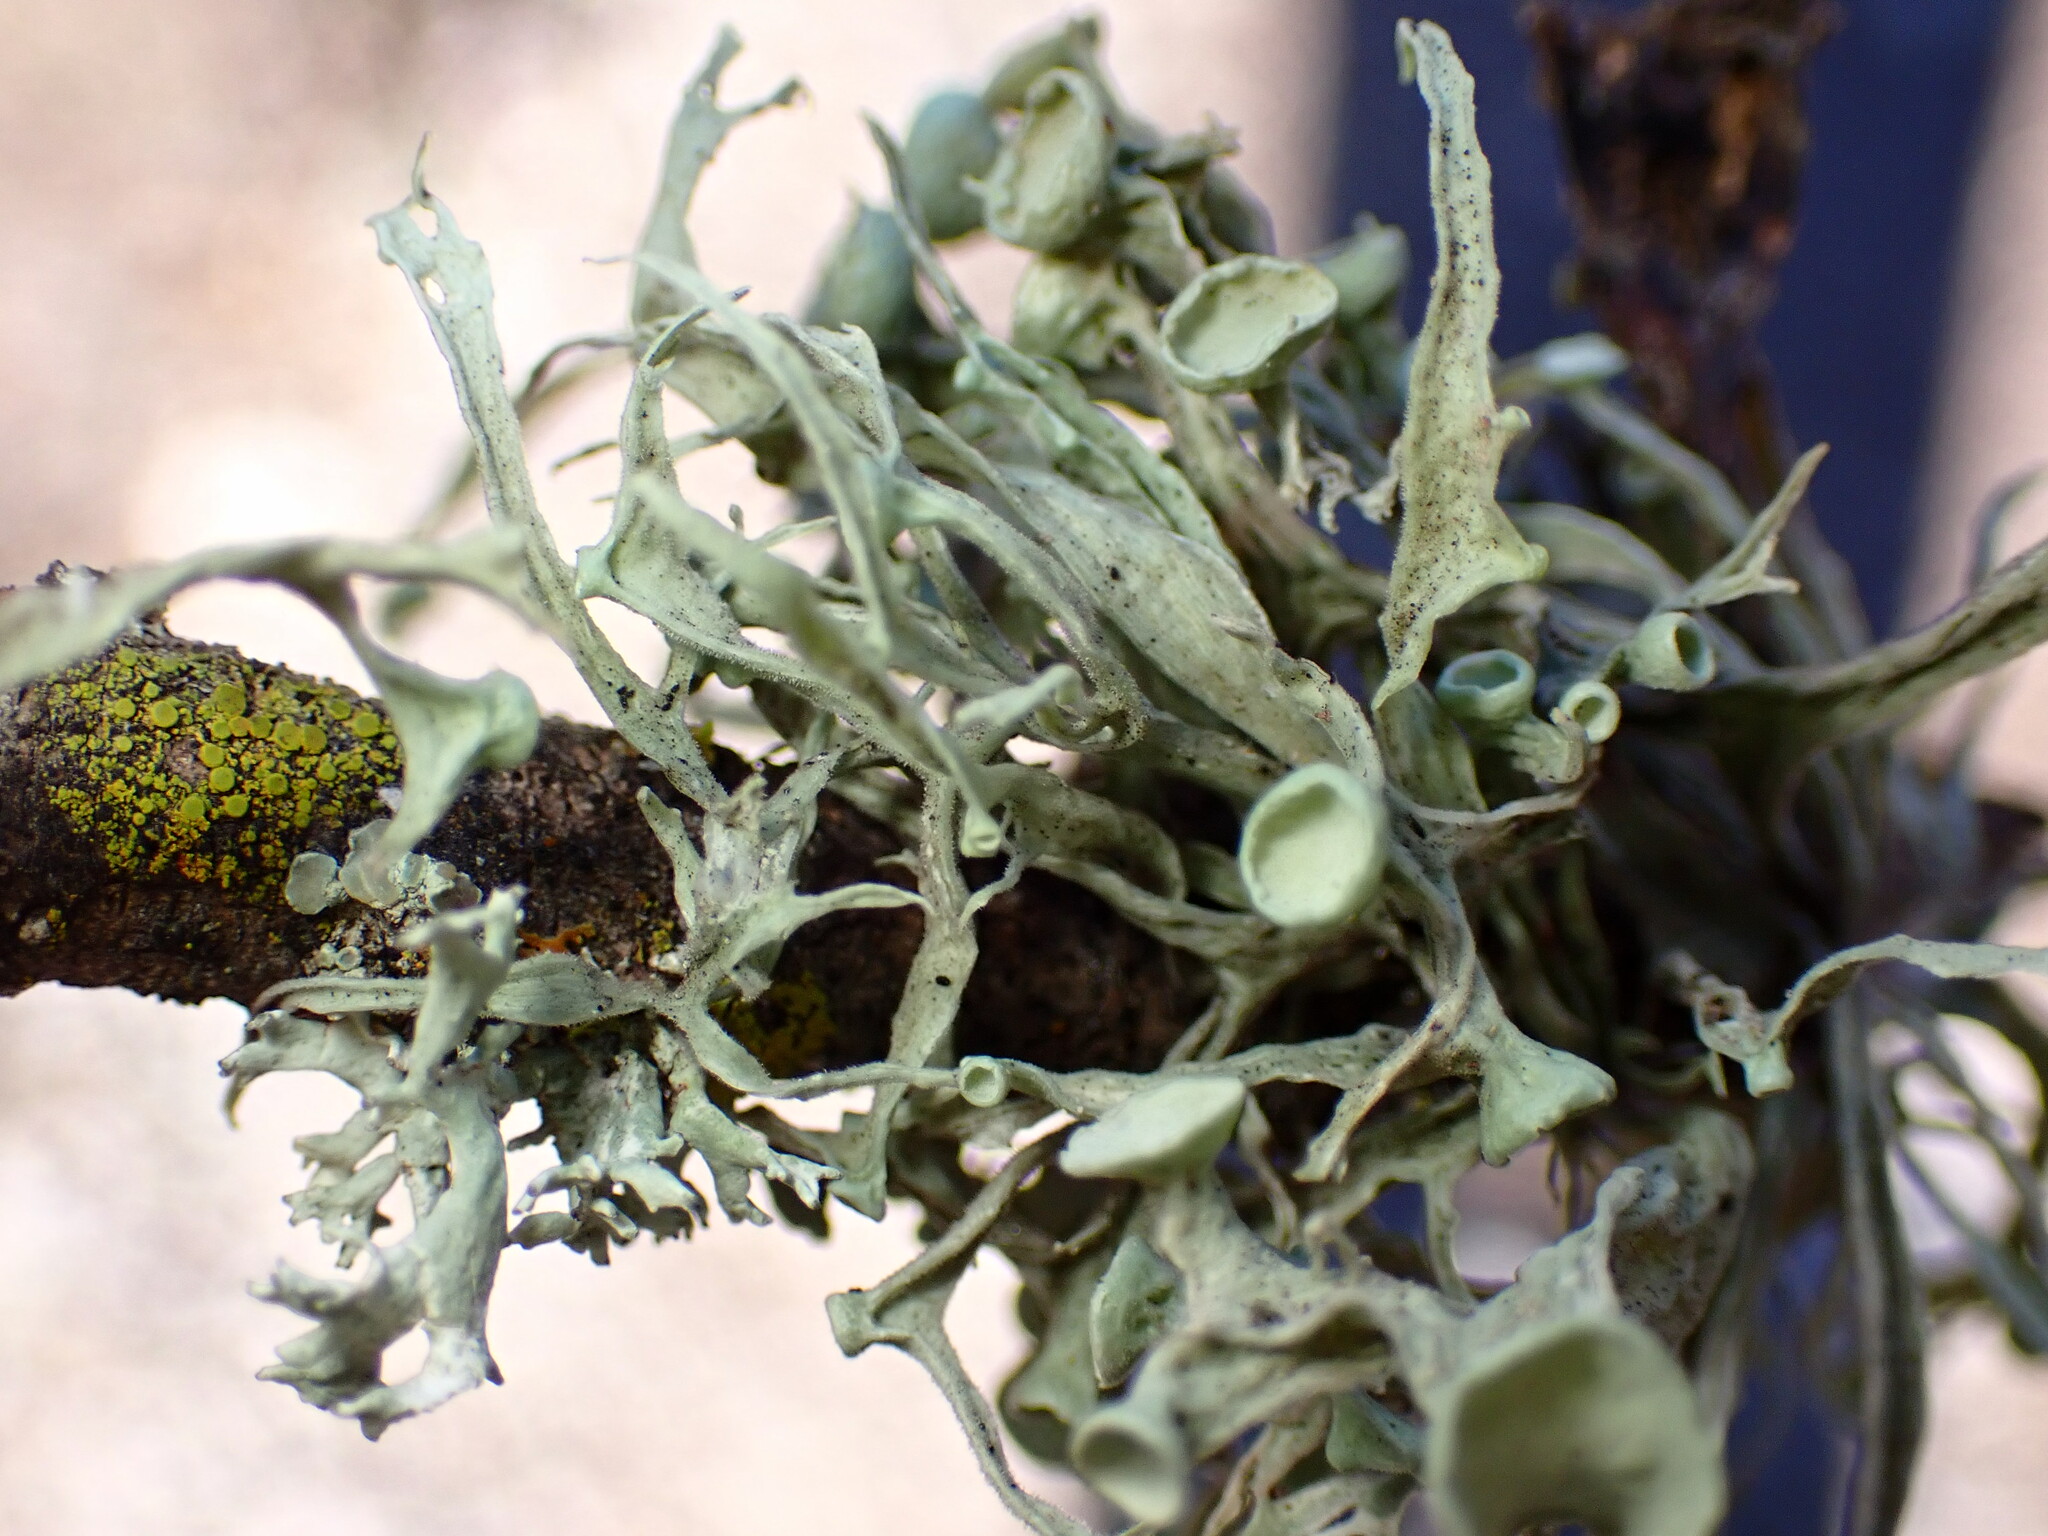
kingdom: Fungi
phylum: Ascomycota
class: Lecanoromycetes
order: Lecanorales
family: Ramalinaceae
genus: Ramalina
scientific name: Ramalina leptocarpha
